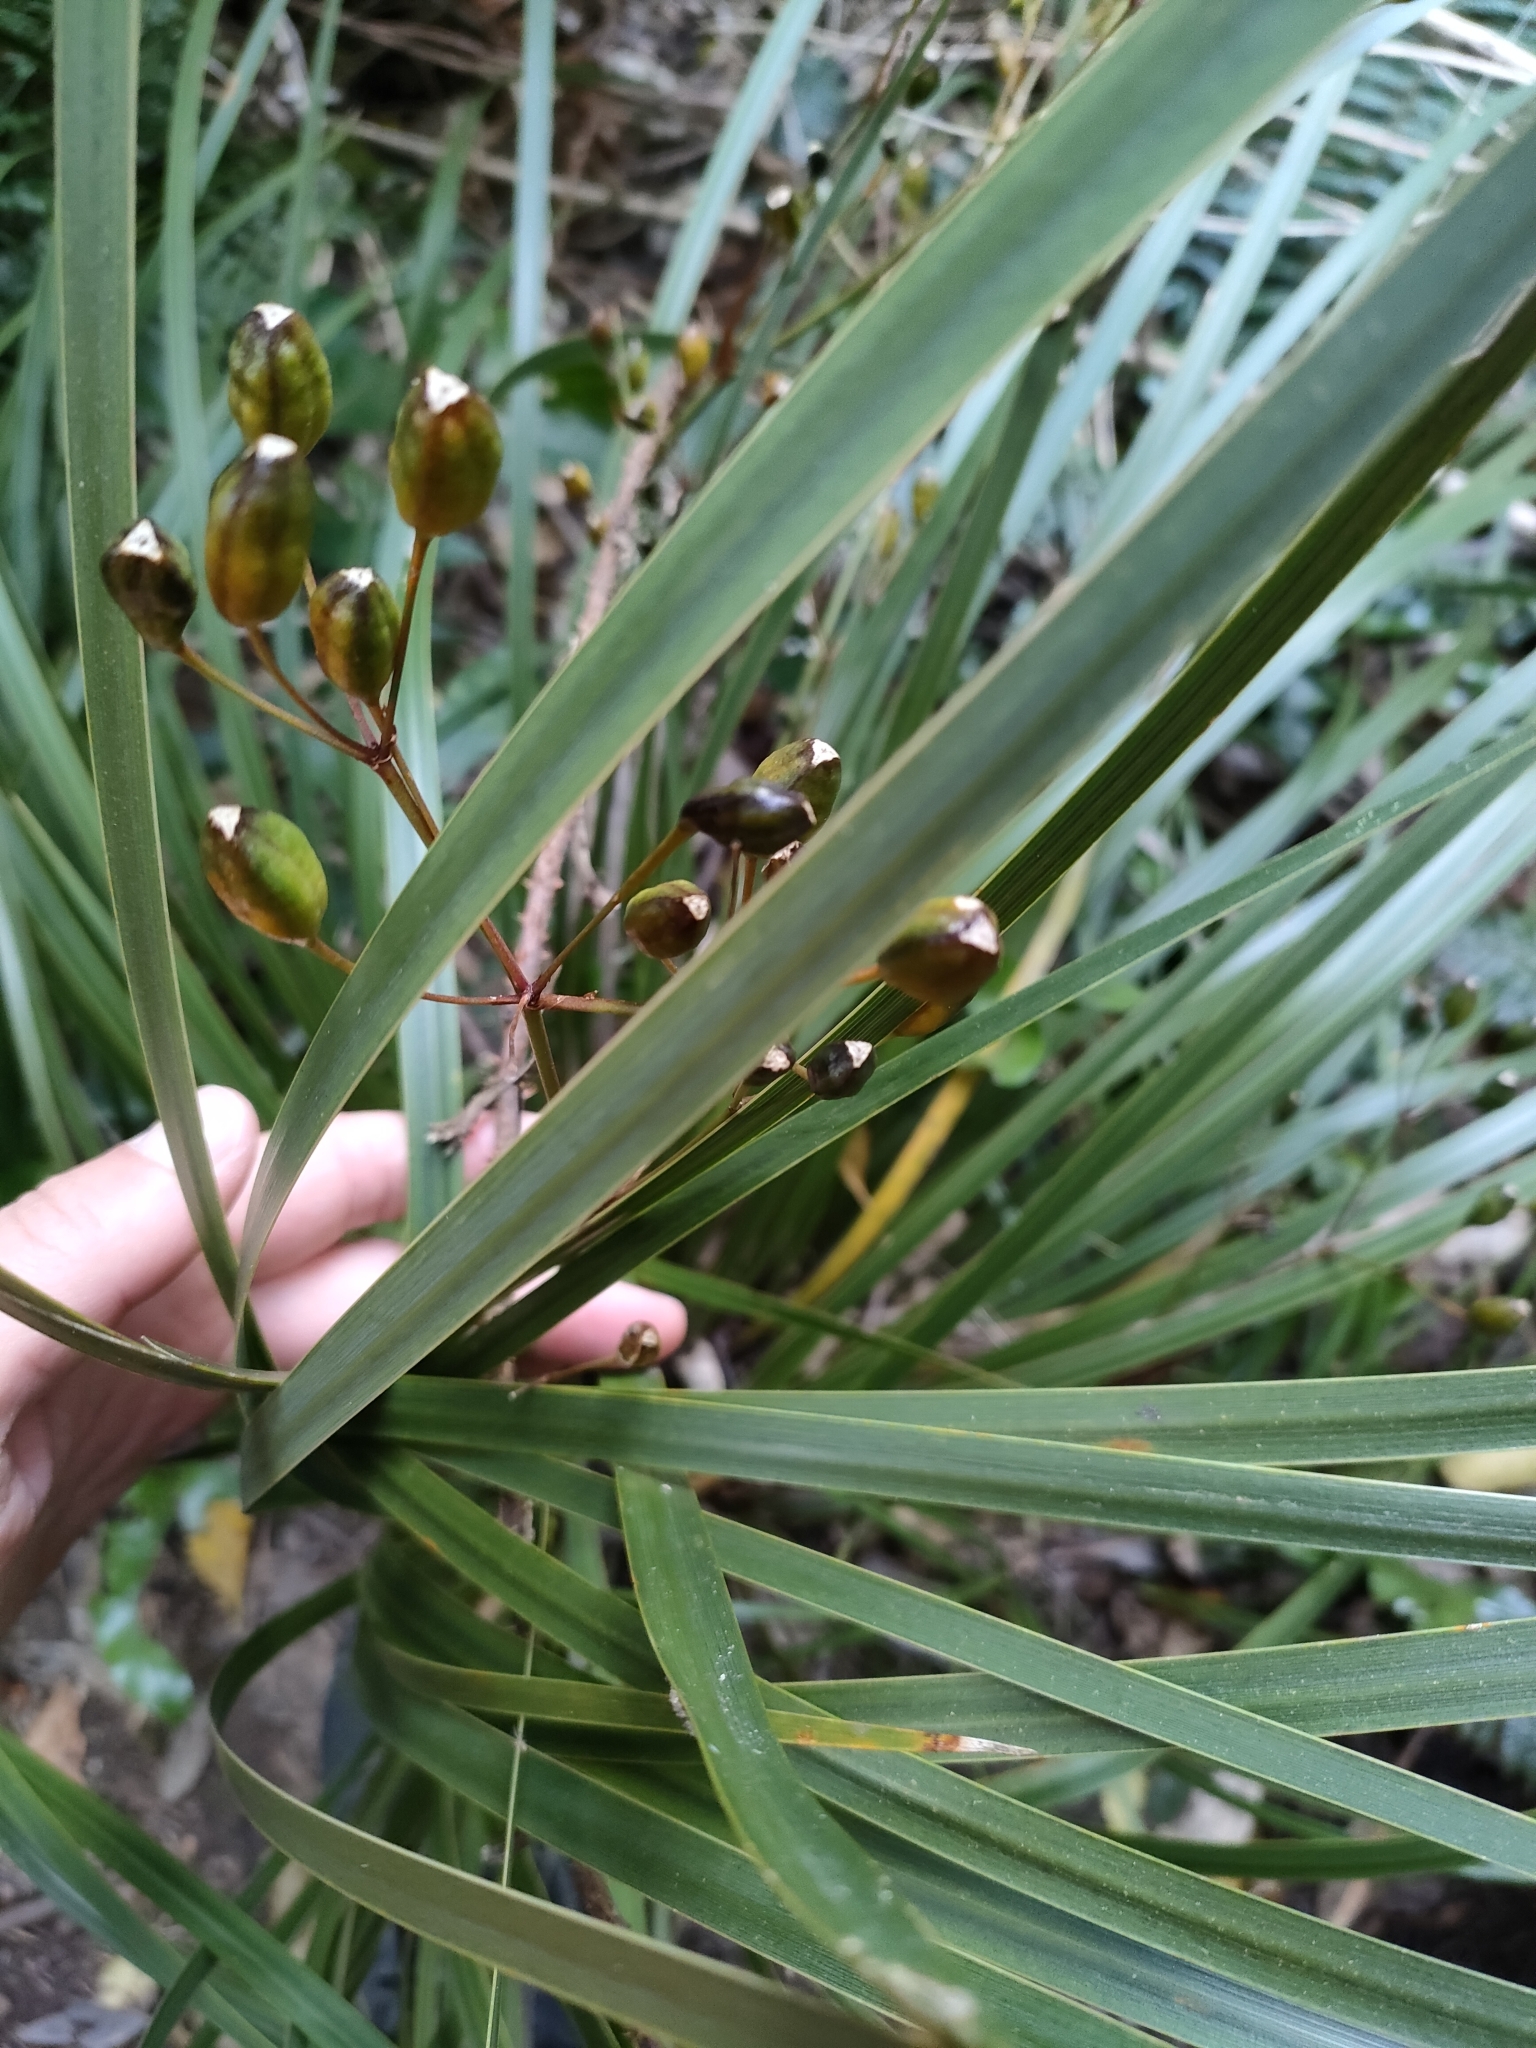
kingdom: Plantae
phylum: Tracheophyta
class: Liliopsida
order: Asparagales
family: Iridaceae
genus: Libertia
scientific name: Libertia ixioides
